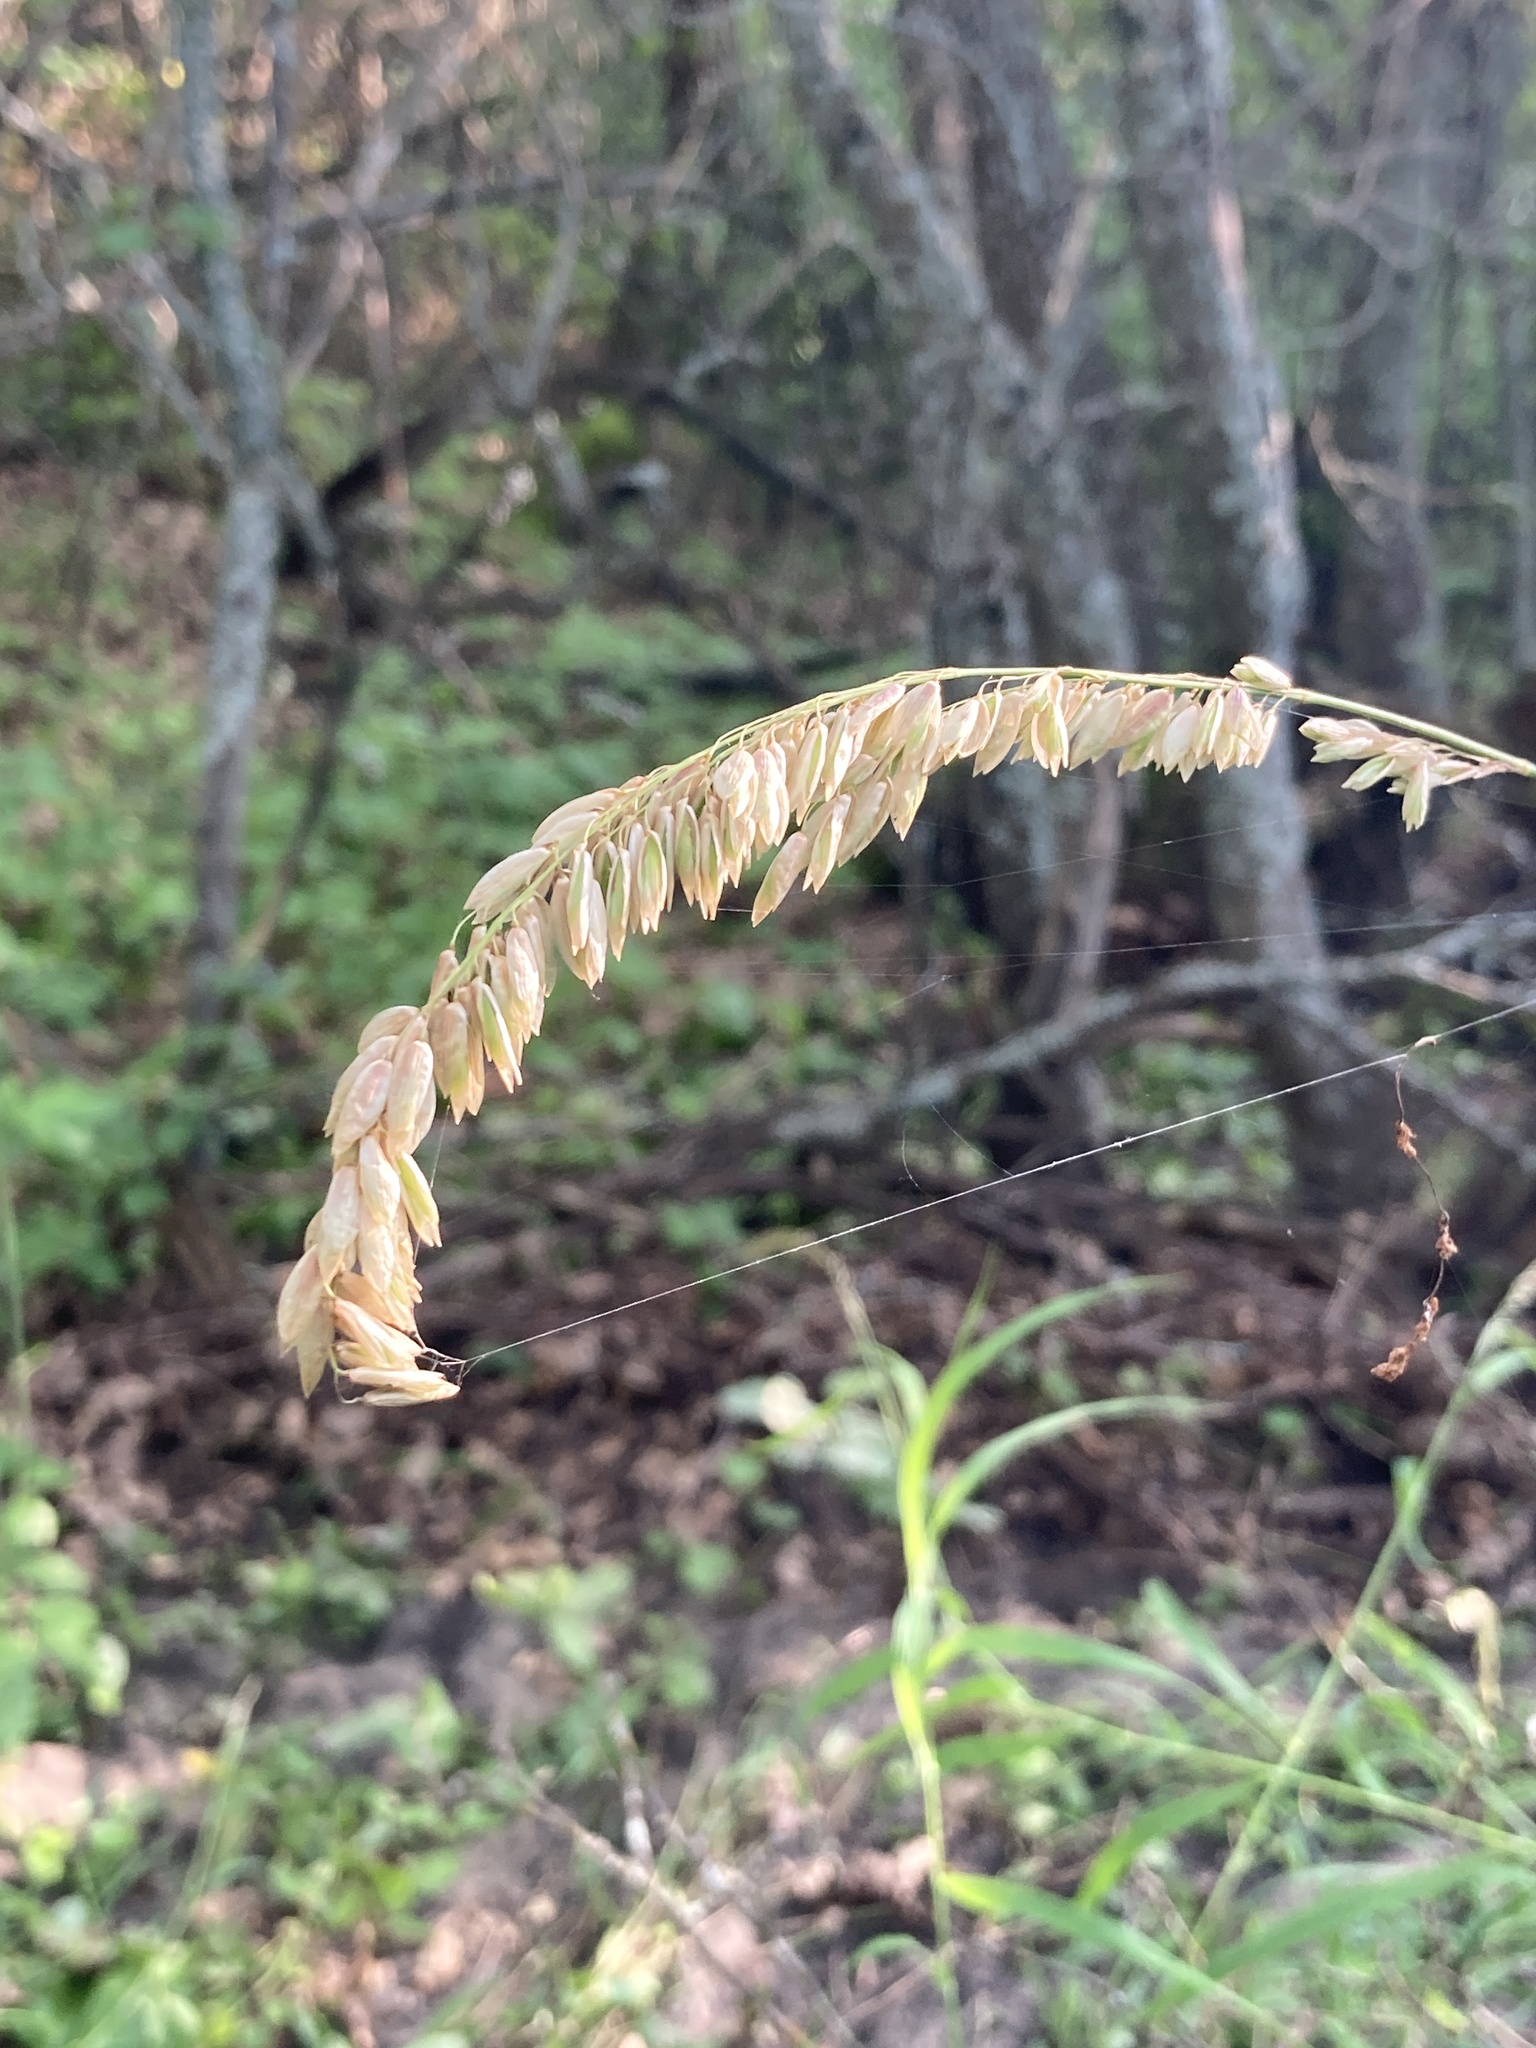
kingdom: Plantae
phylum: Tracheophyta
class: Liliopsida
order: Poales
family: Poaceae
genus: Melica
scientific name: Melica altissima
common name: Siberian melicgrass
